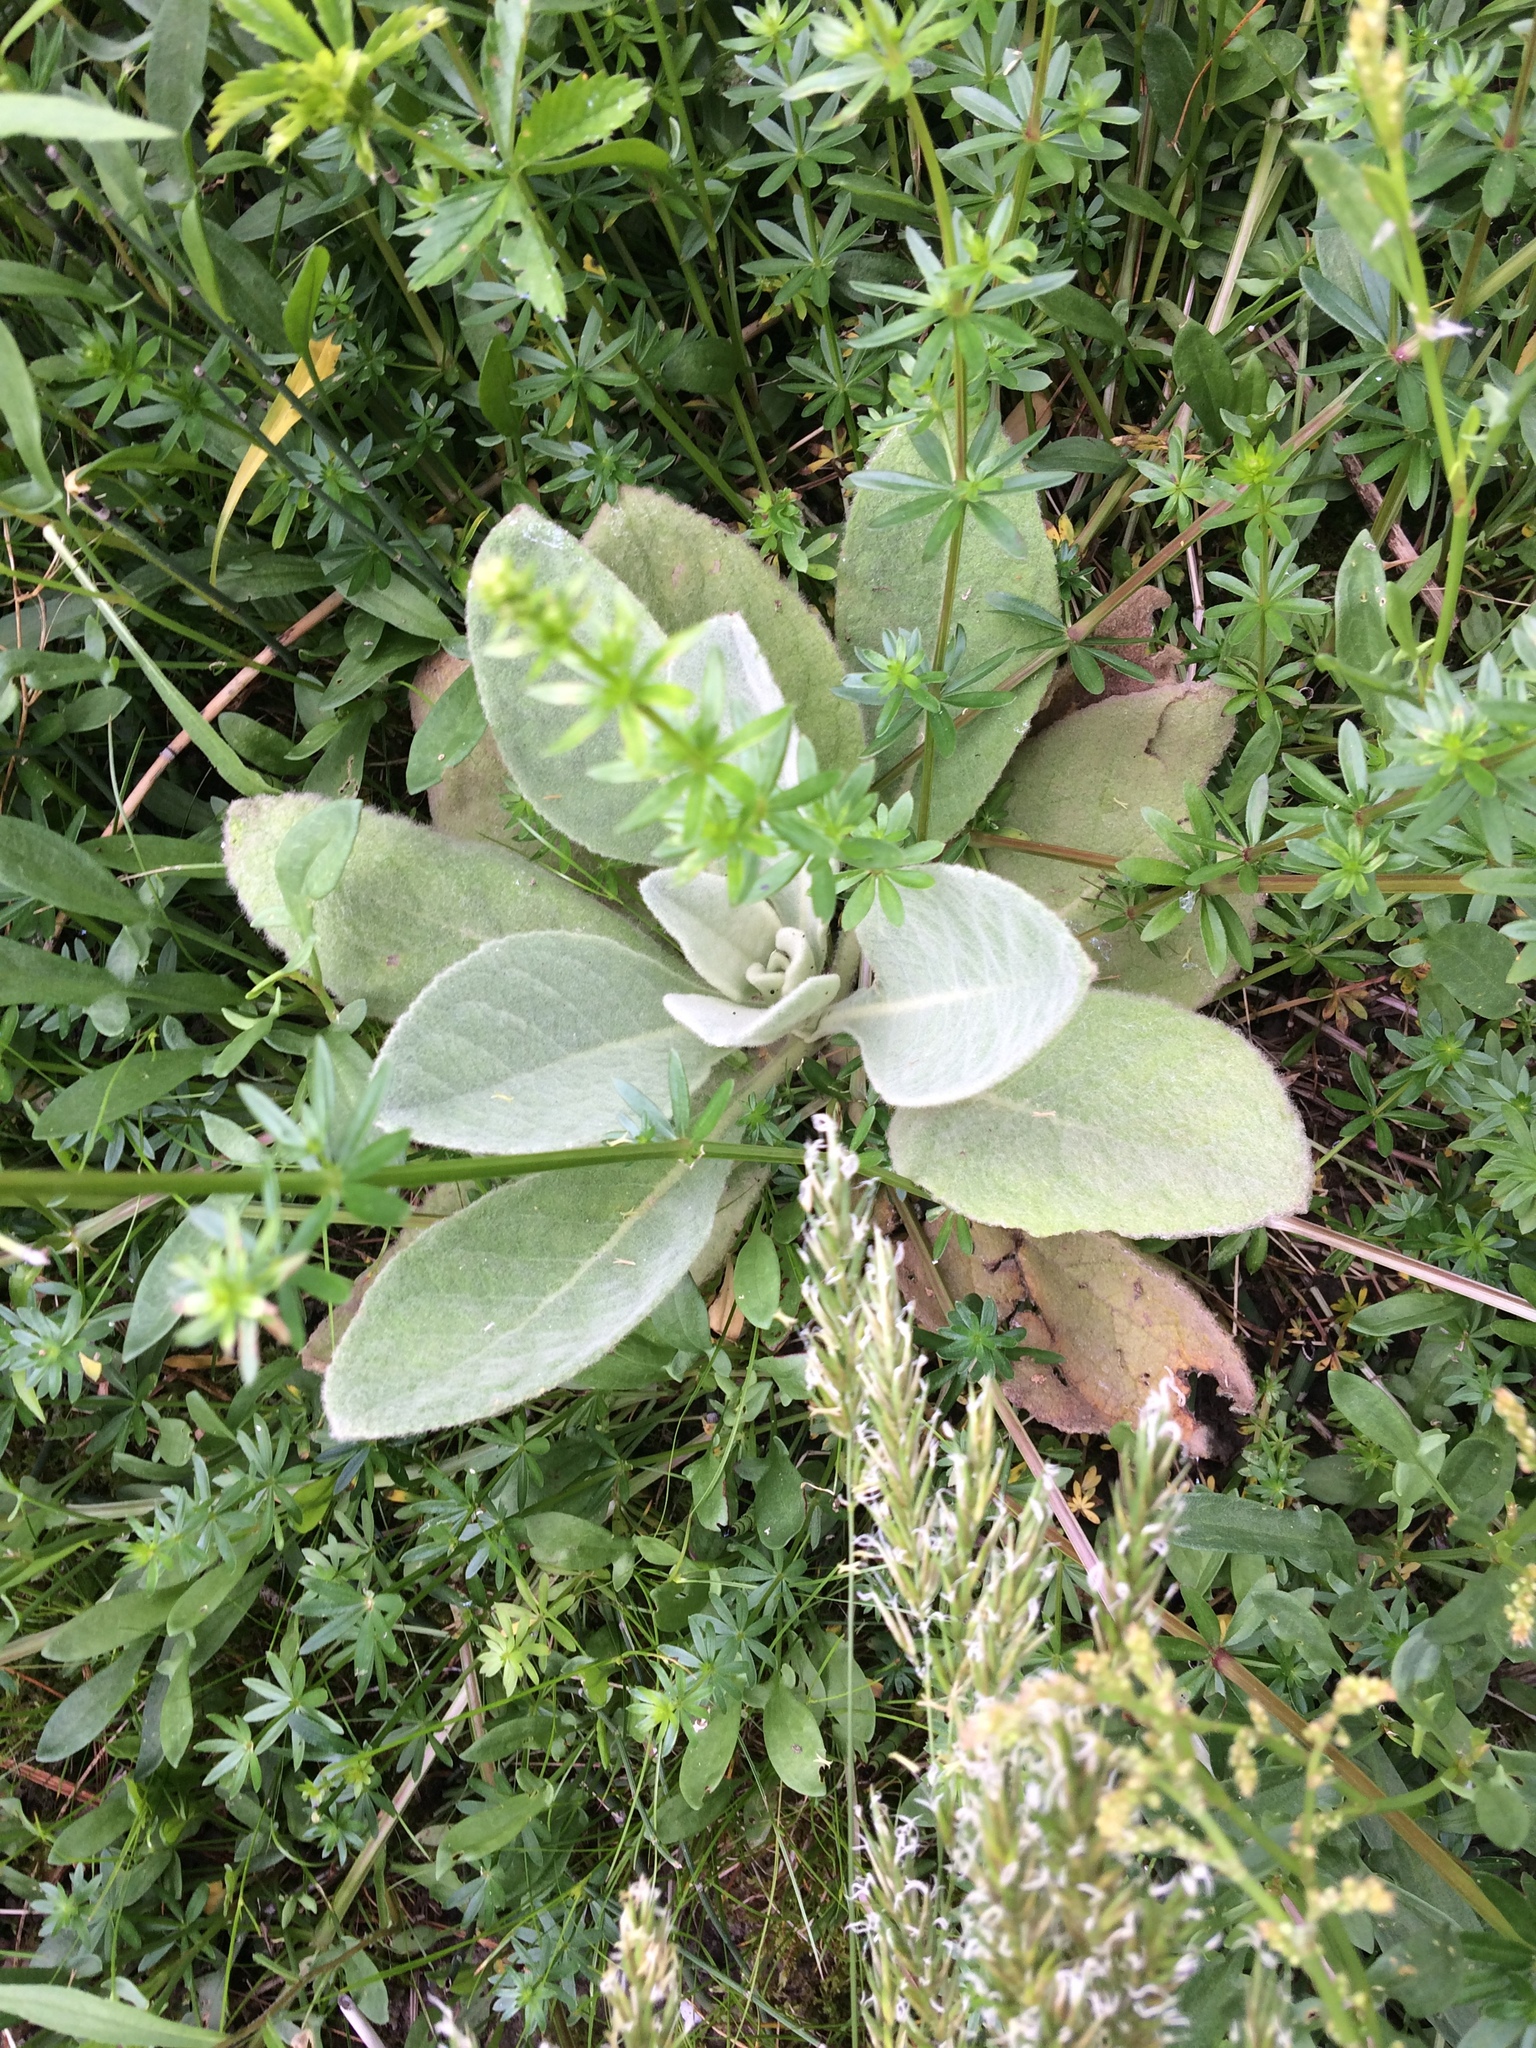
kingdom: Plantae
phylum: Tracheophyta
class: Magnoliopsida
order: Lamiales
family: Scrophulariaceae
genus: Verbascum
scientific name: Verbascum thapsus
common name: Common mullein
